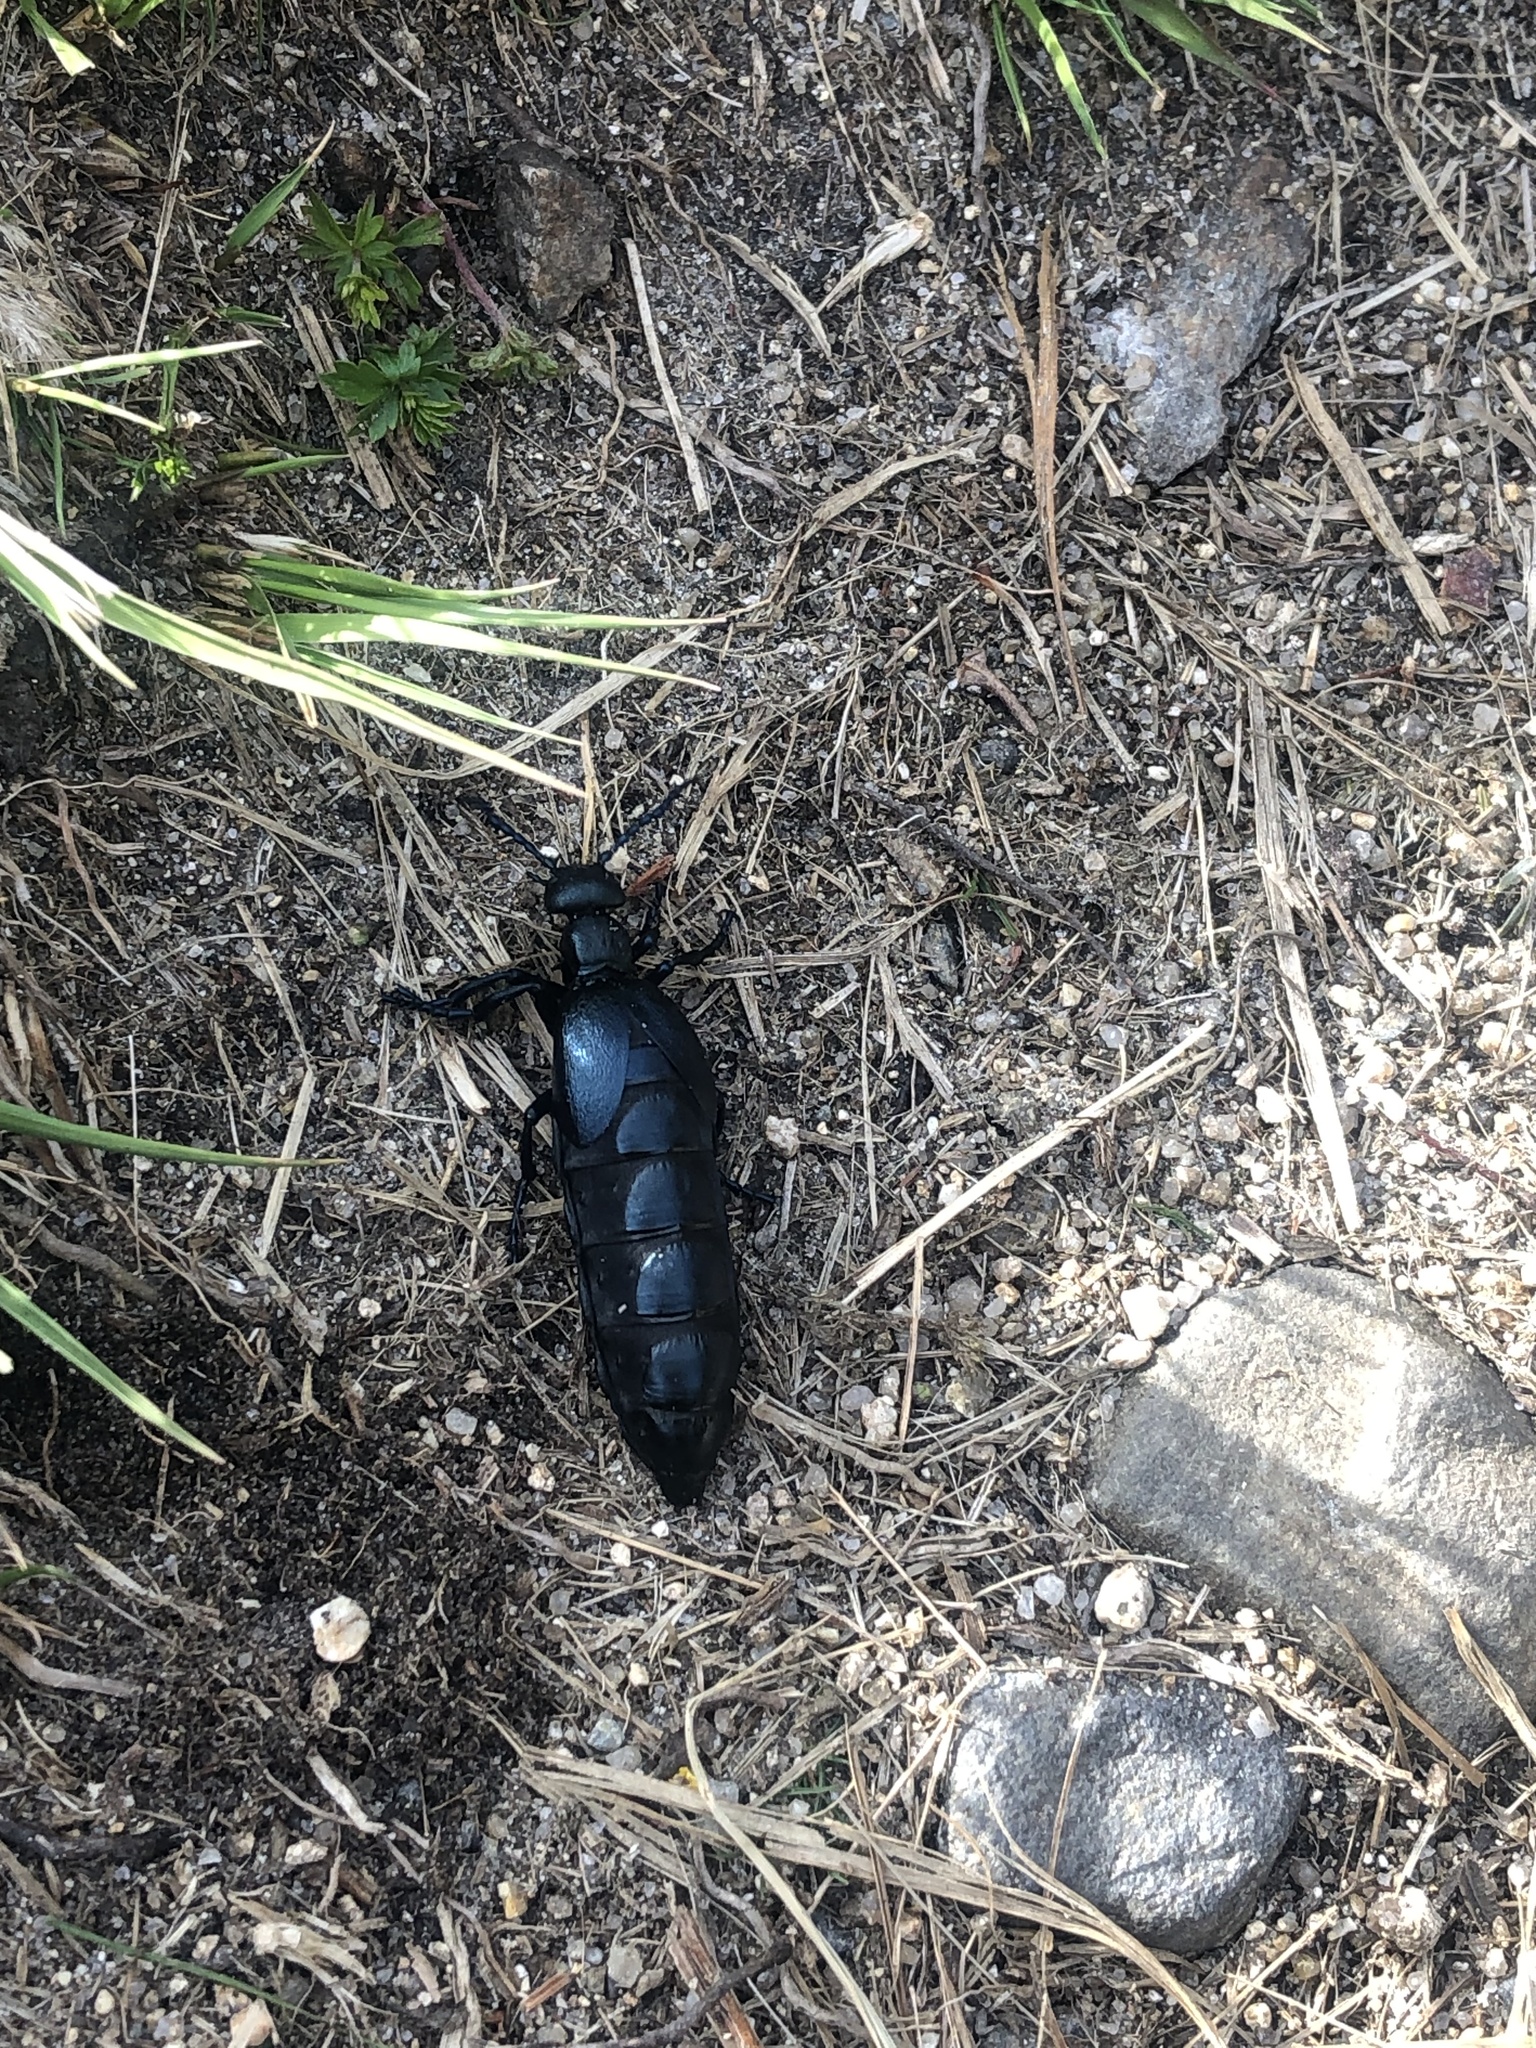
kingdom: Animalia
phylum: Arthropoda
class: Insecta
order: Coleoptera
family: Meloidae
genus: Meloe
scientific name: Meloe violaceus
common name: Violet oil-beetle
